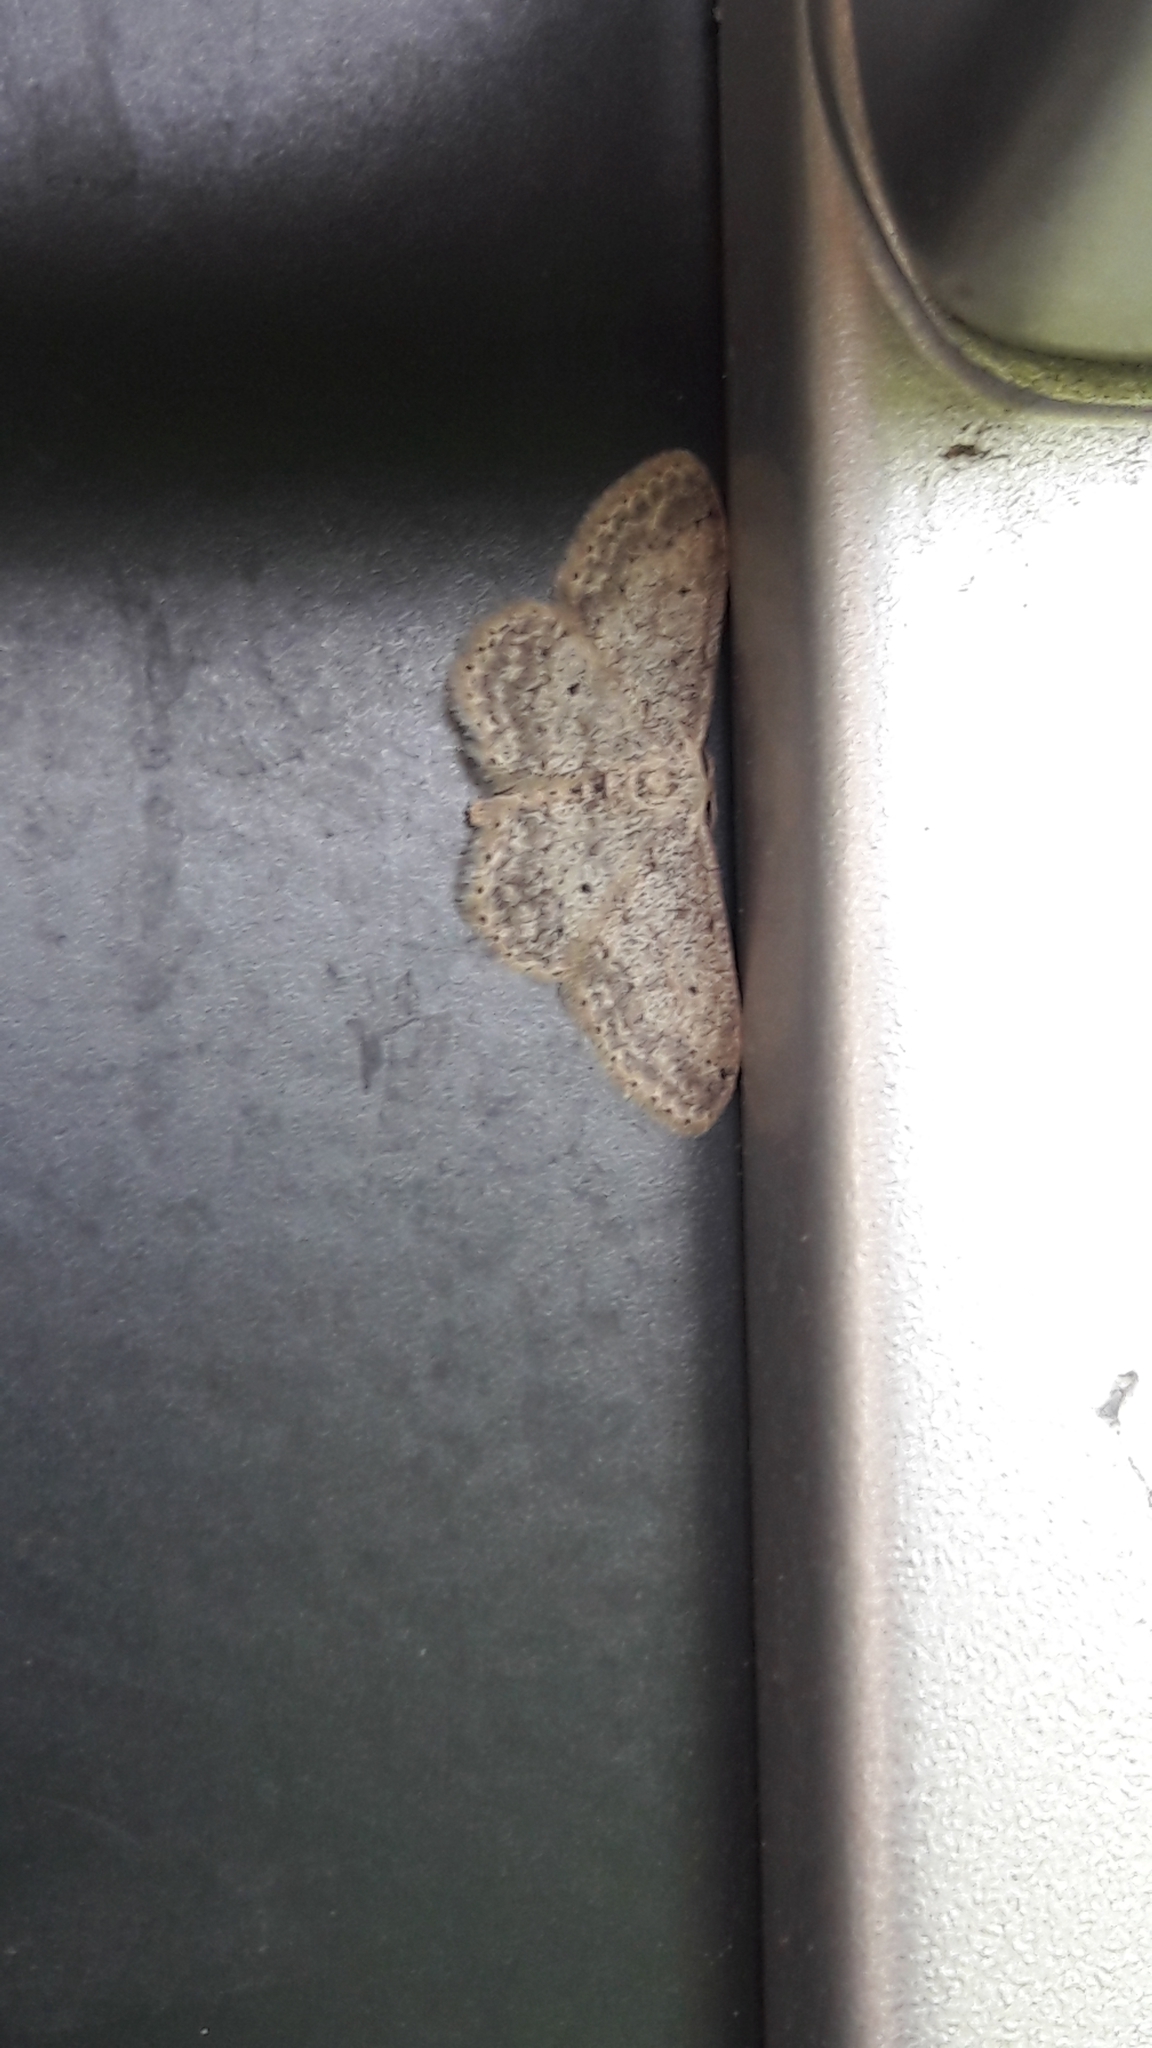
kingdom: Animalia
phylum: Arthropoda
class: Insecta
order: Lepidoptera
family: Geometridae
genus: Idaea
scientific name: Idaea seriata
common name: Small dusty wave
